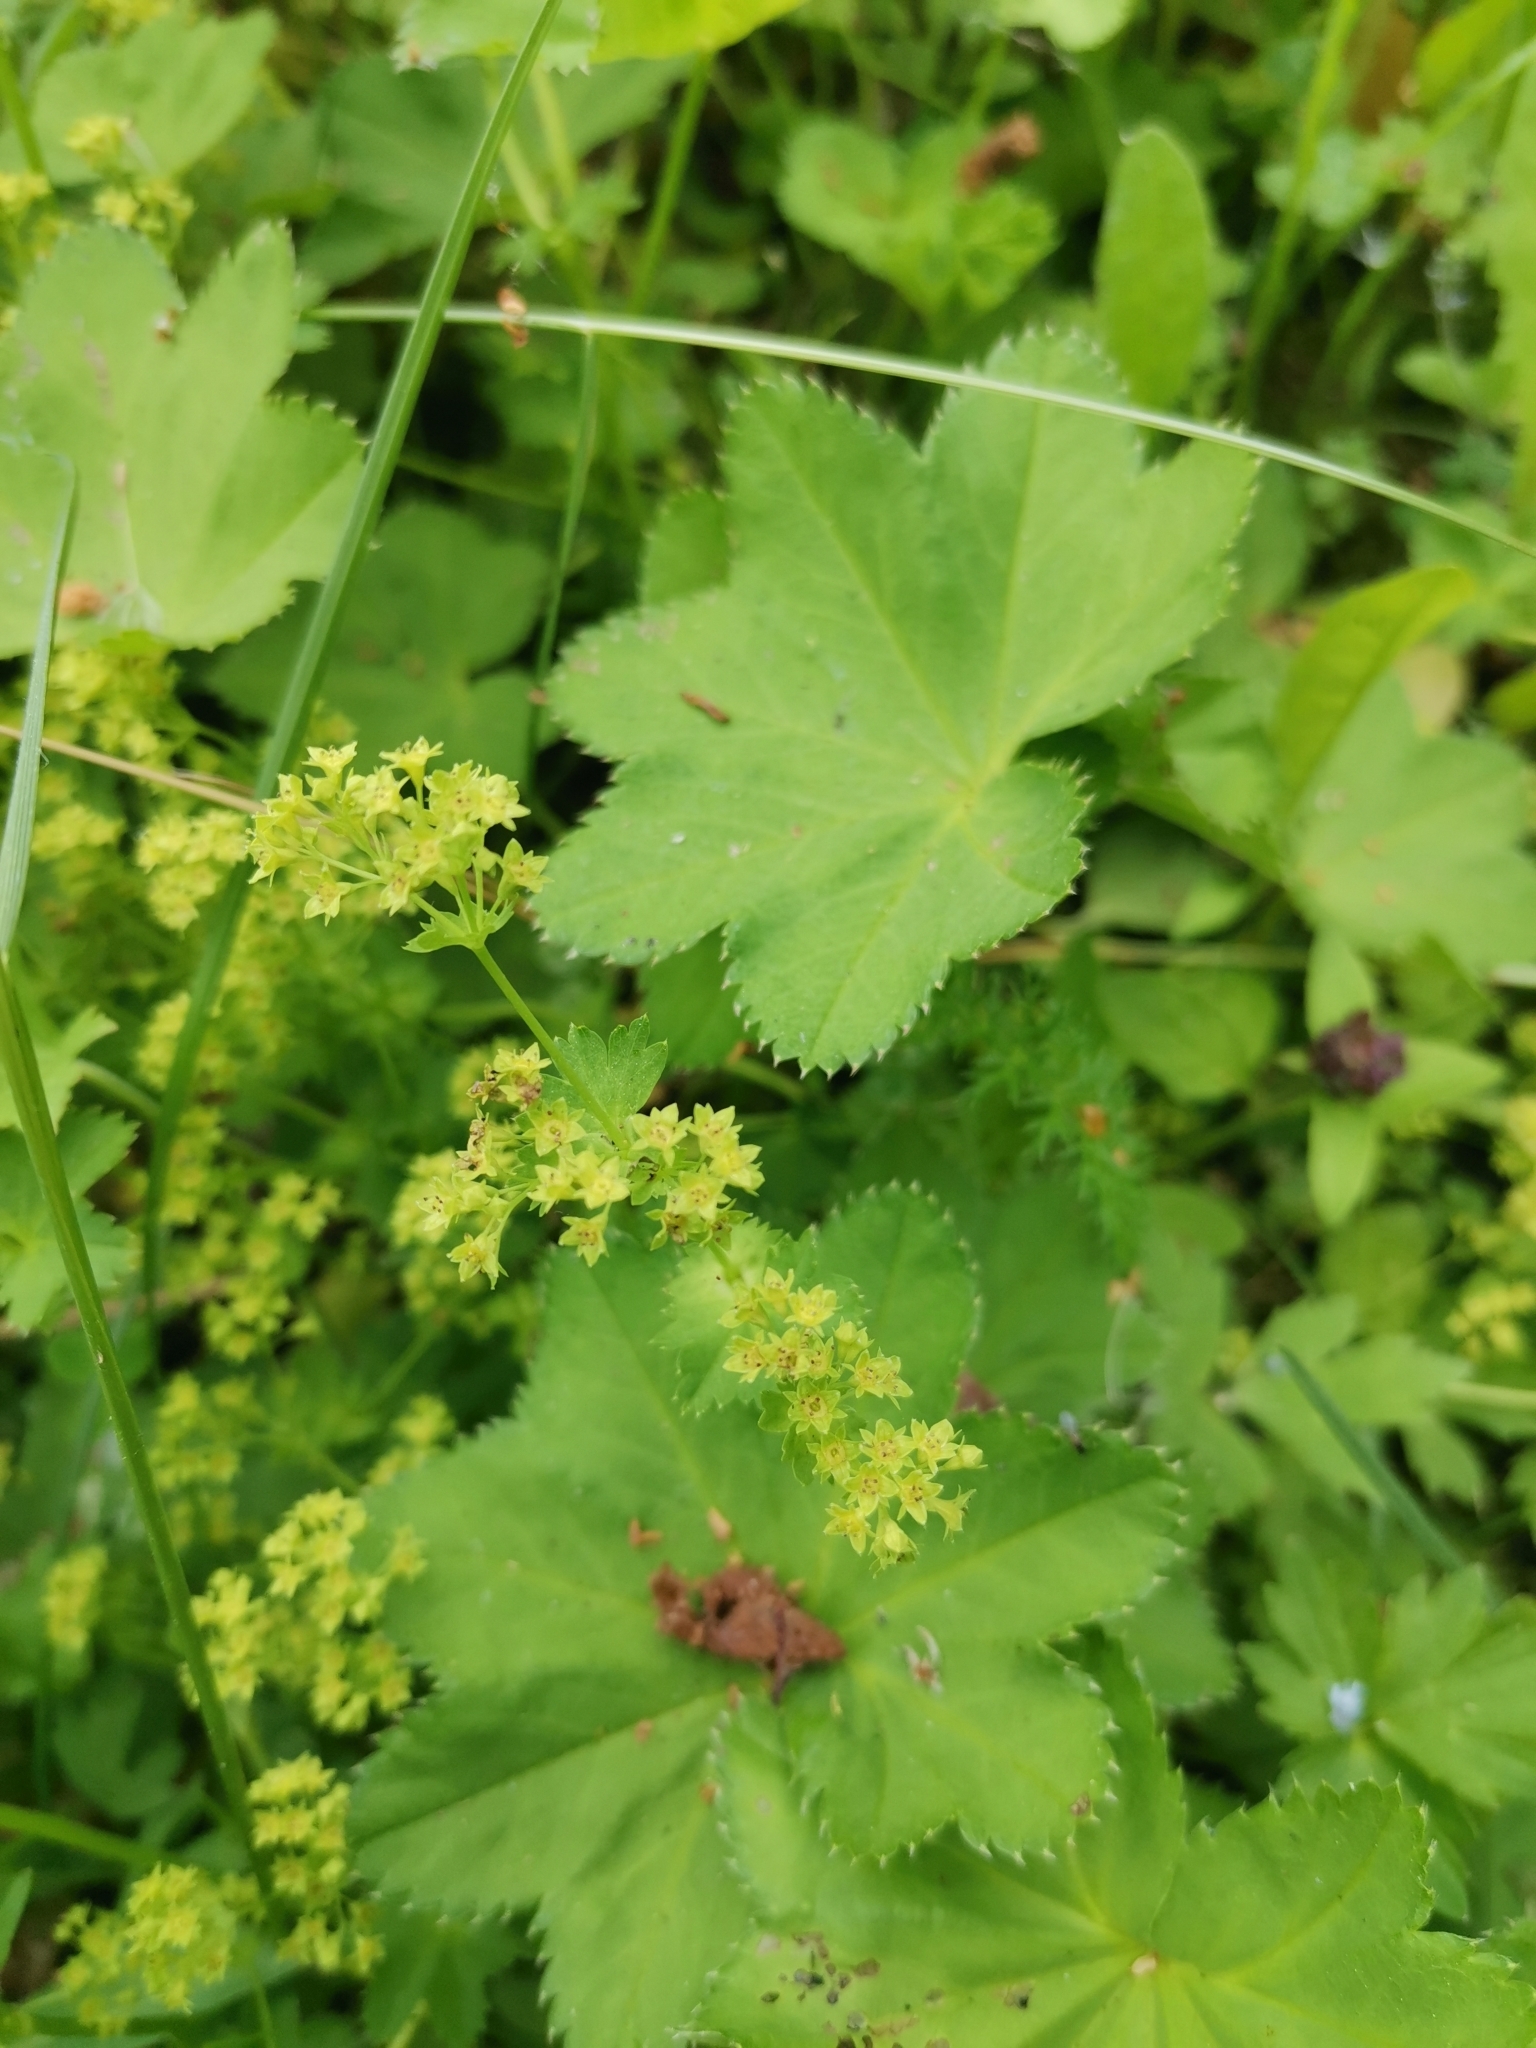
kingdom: Plantae
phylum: Tracheophyta
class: Magnoliopsida
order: Rosales
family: Rosaceae
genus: Alchemilla
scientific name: Alchemilla vulgaris
